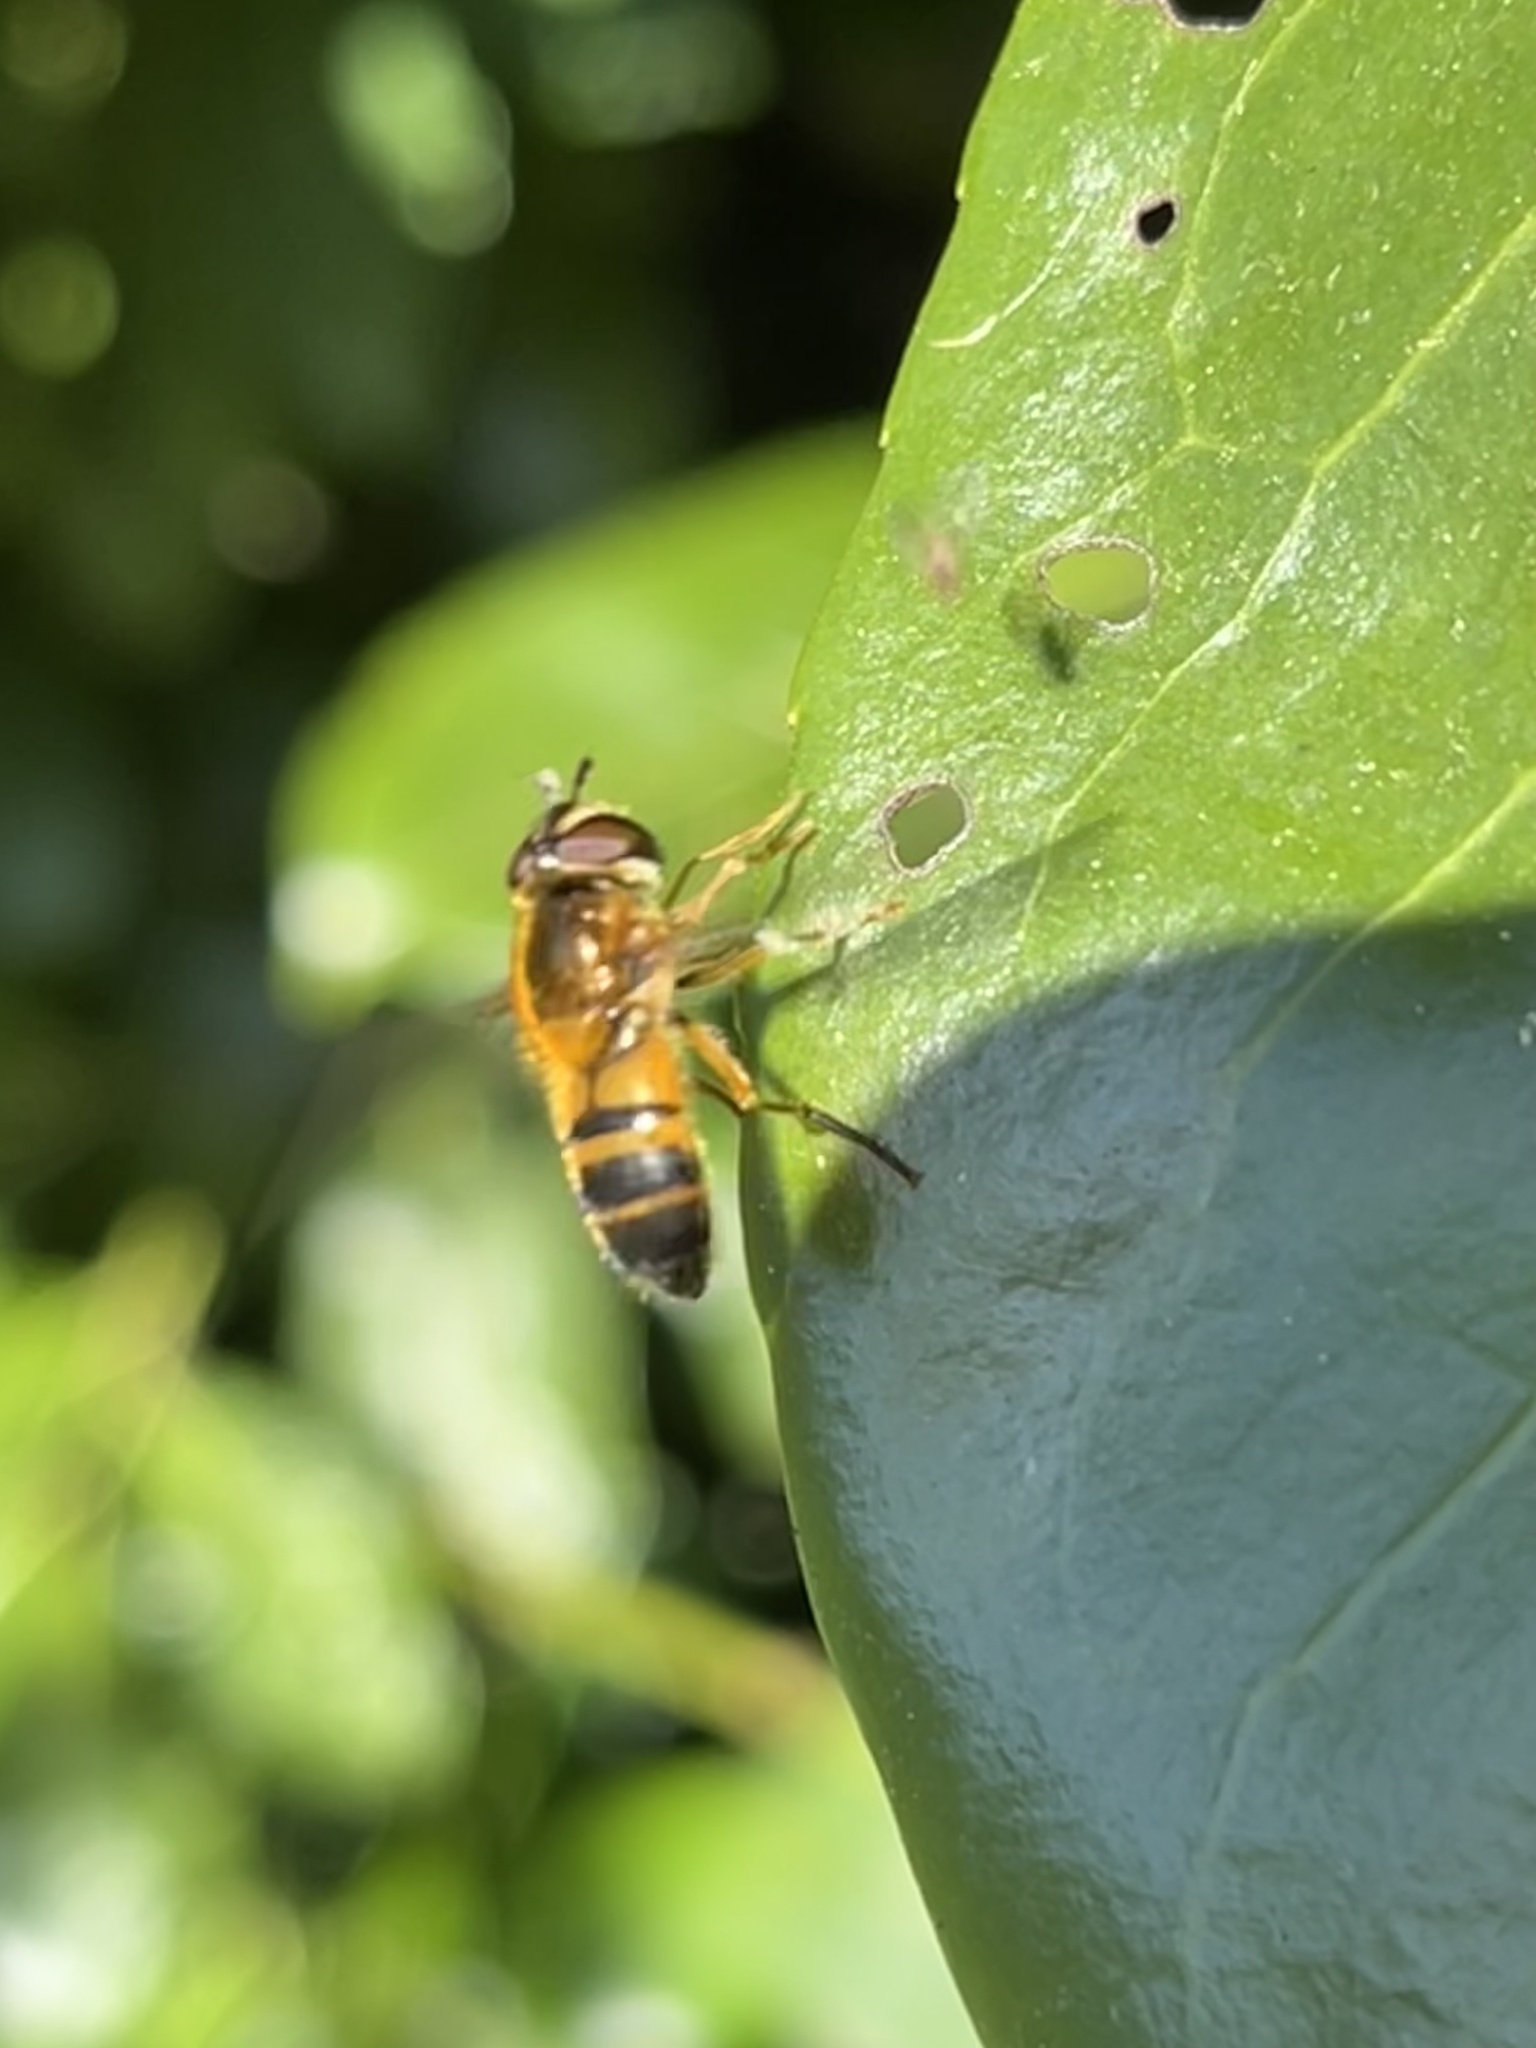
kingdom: Animalia
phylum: Arthropoda
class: Insecta
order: Diptera
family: Syrphidae
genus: Epistrophe
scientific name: Epistrophe eligans
